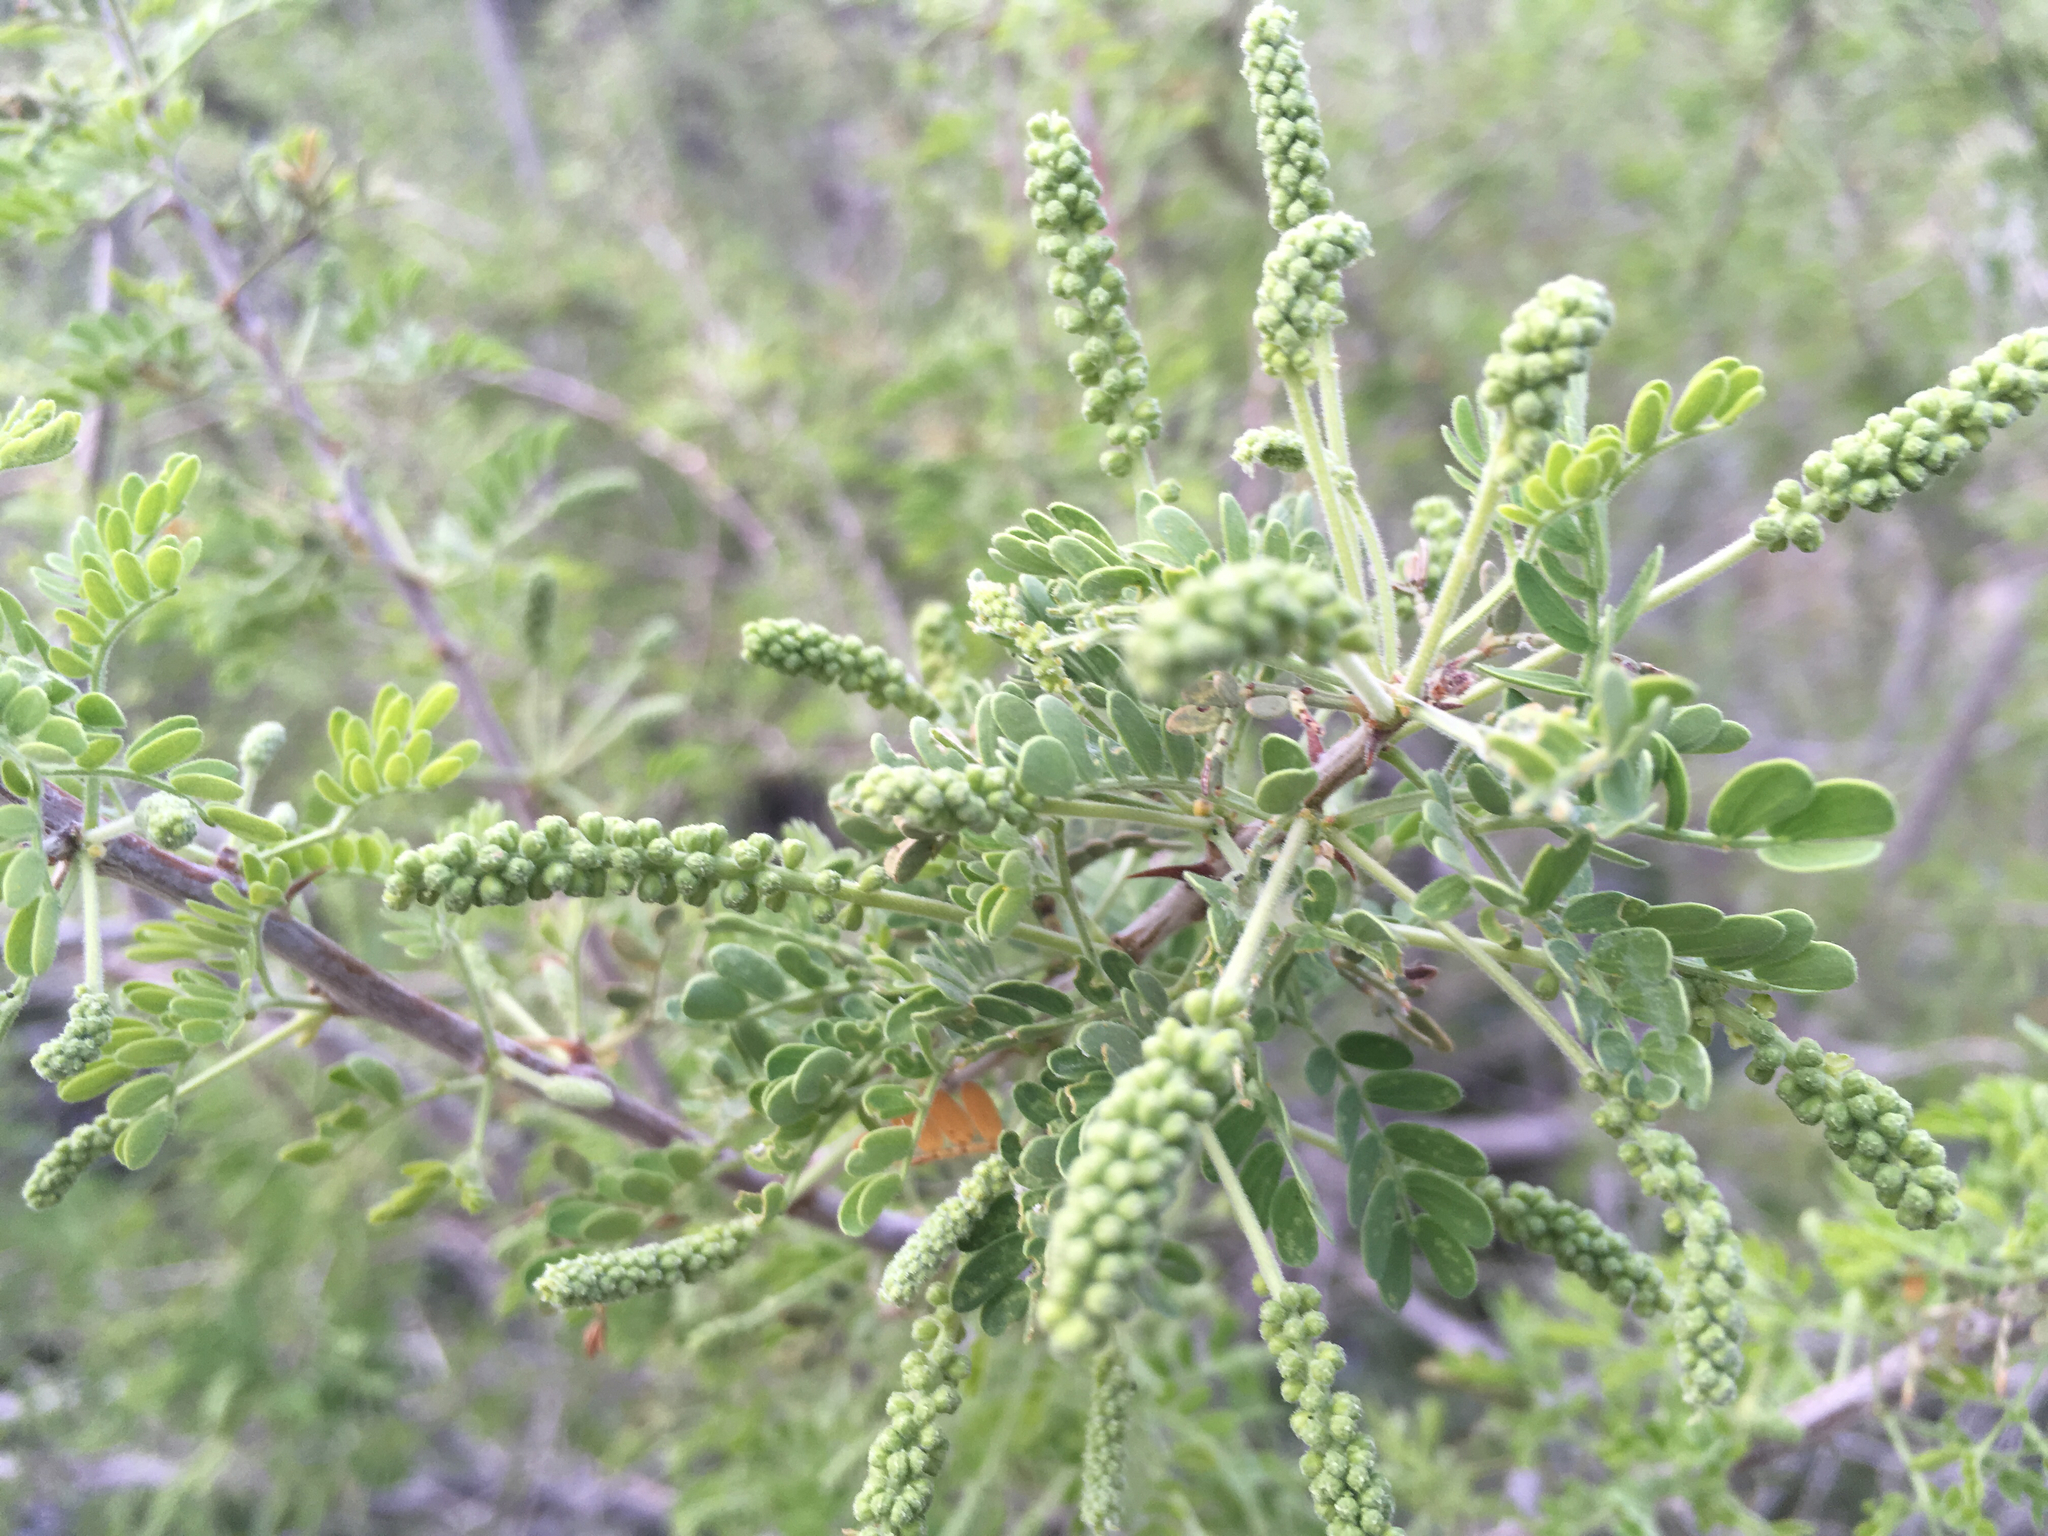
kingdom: Plantae
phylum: Tracheophyta
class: Magnoliopsida
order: Fabales
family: Fabaceae
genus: Senegalia
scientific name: Senegalia greggii
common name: Texas-mimosa
